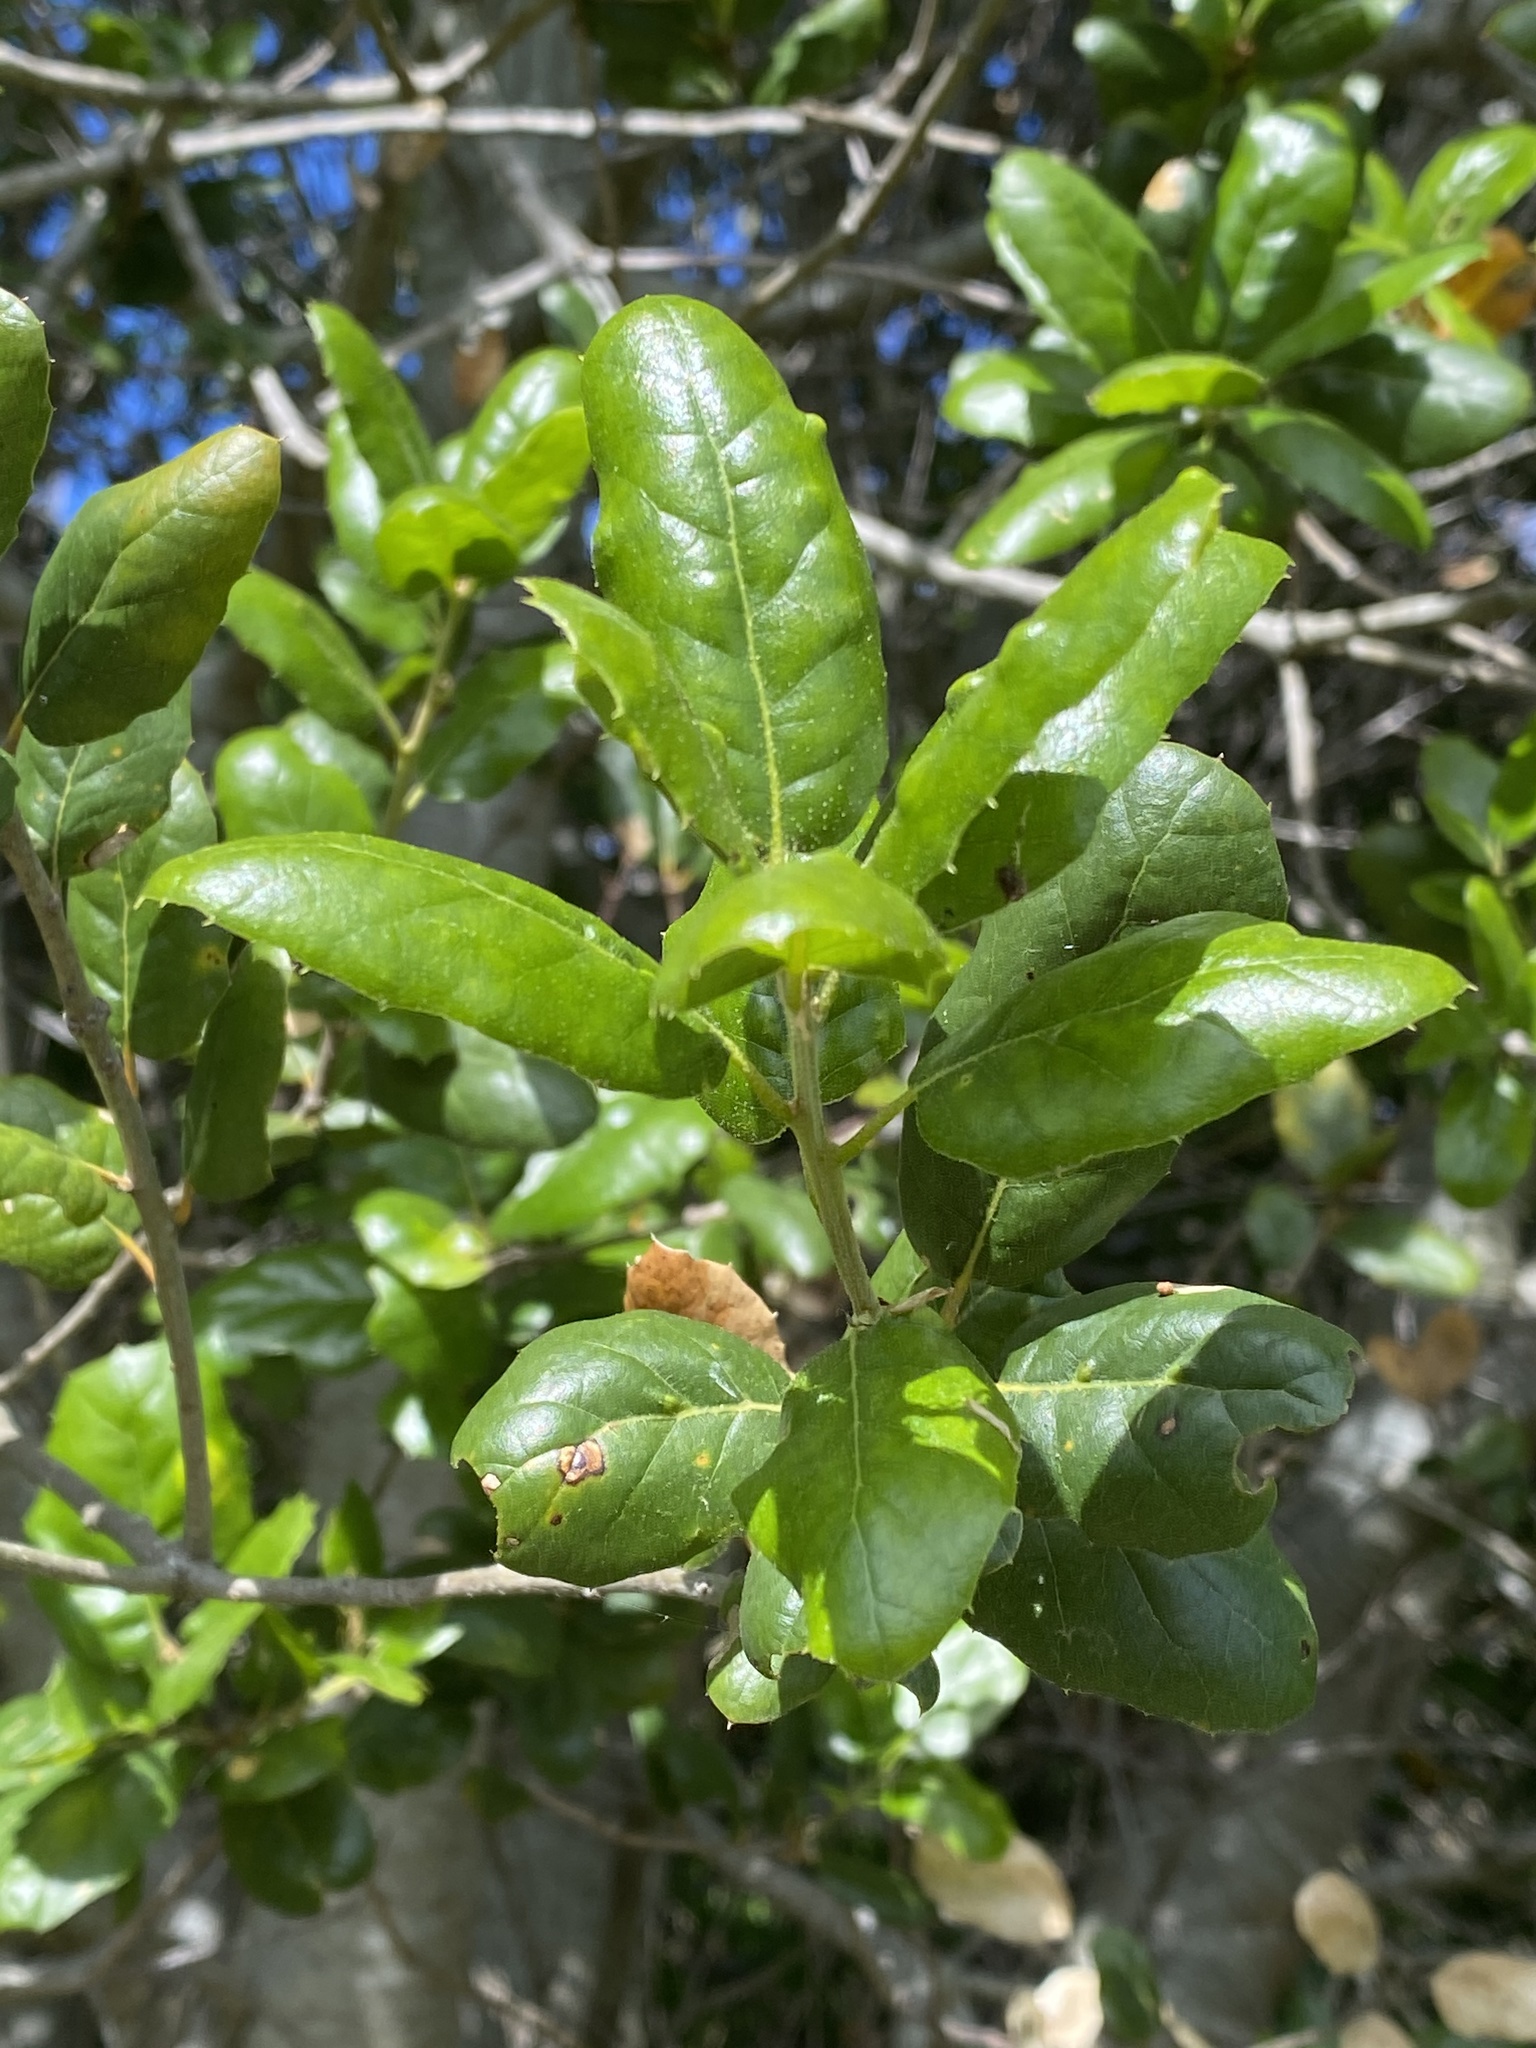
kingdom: Plantae
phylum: Tracheophyta
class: Magnoliopsida
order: Fagales
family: Fagaceae
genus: Quercus
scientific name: Quercus agrifolia
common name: California live oak
